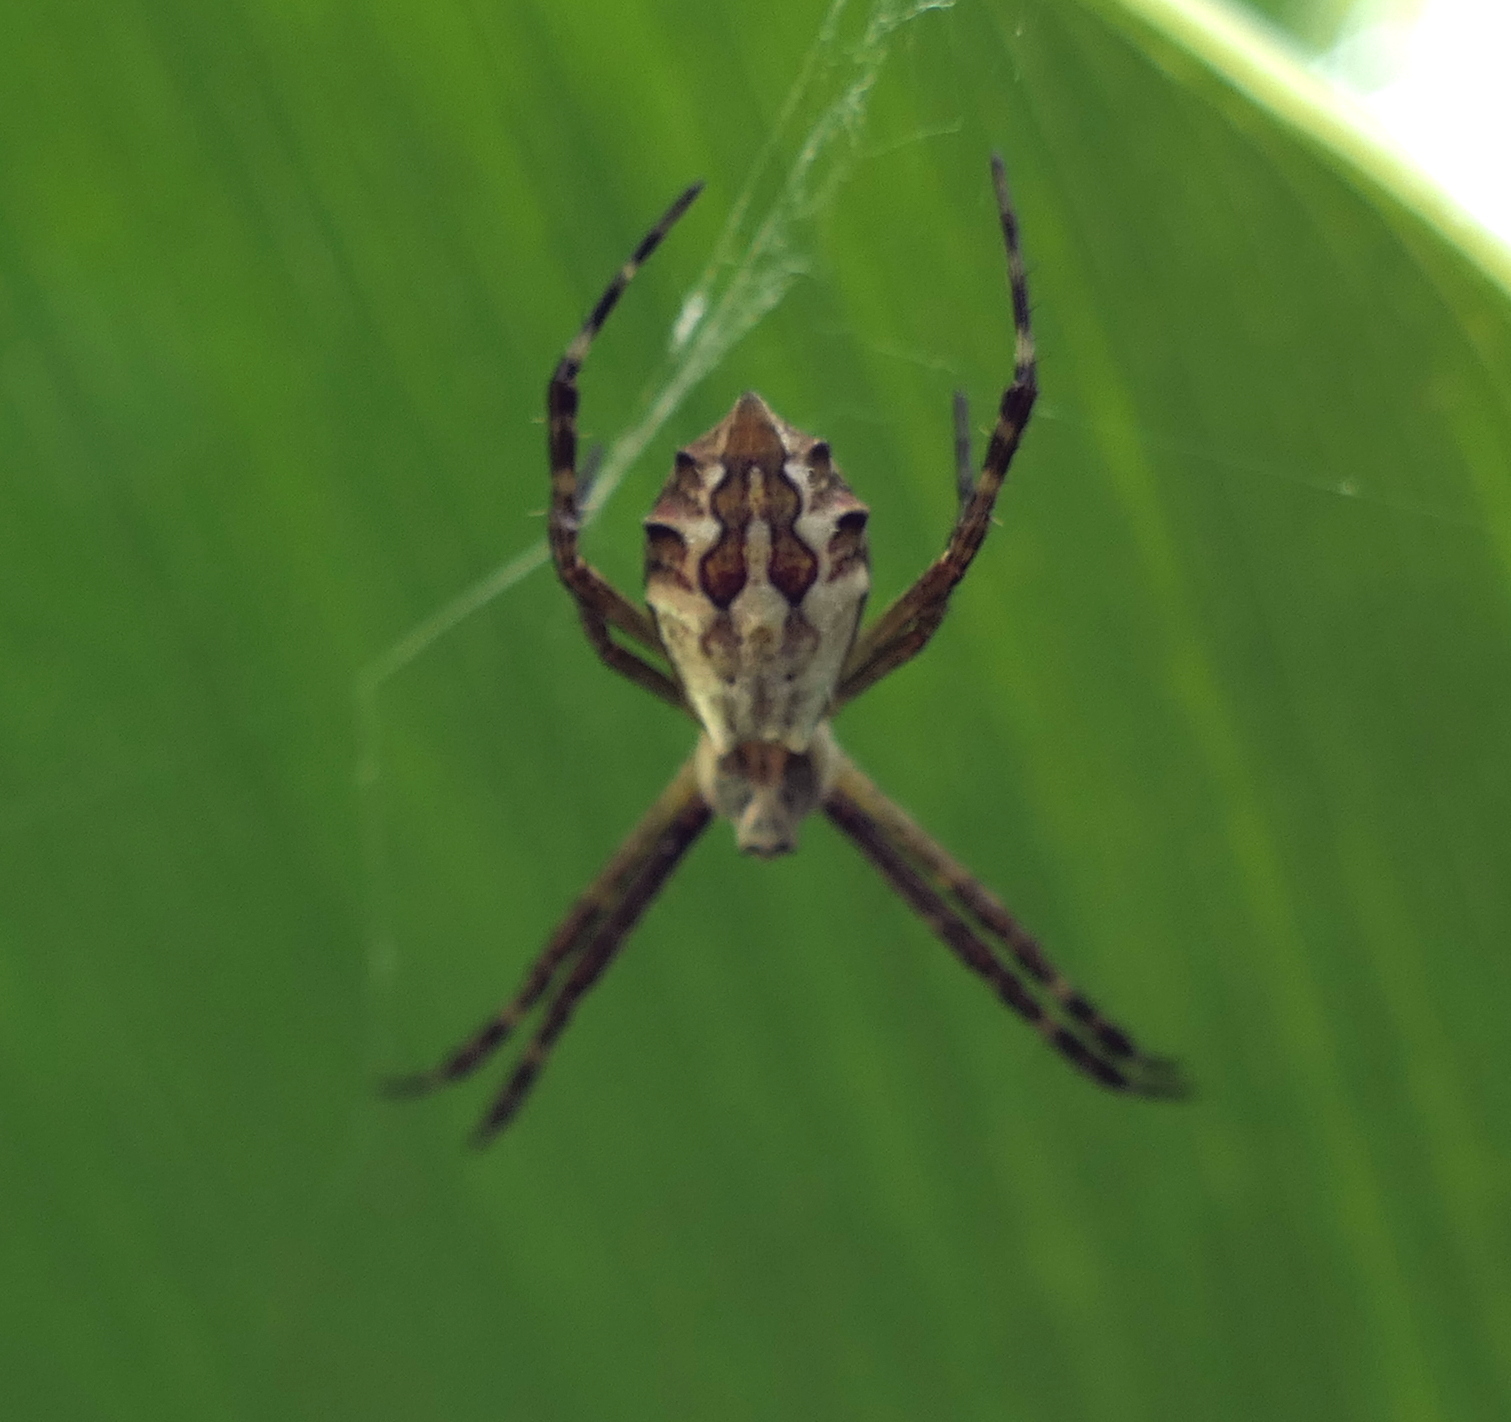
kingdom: Animalia
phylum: Arthropoda
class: Arachnida
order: Araneae
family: Araneidae
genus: Argiope
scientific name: Argiope argentata
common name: Orb weavers
